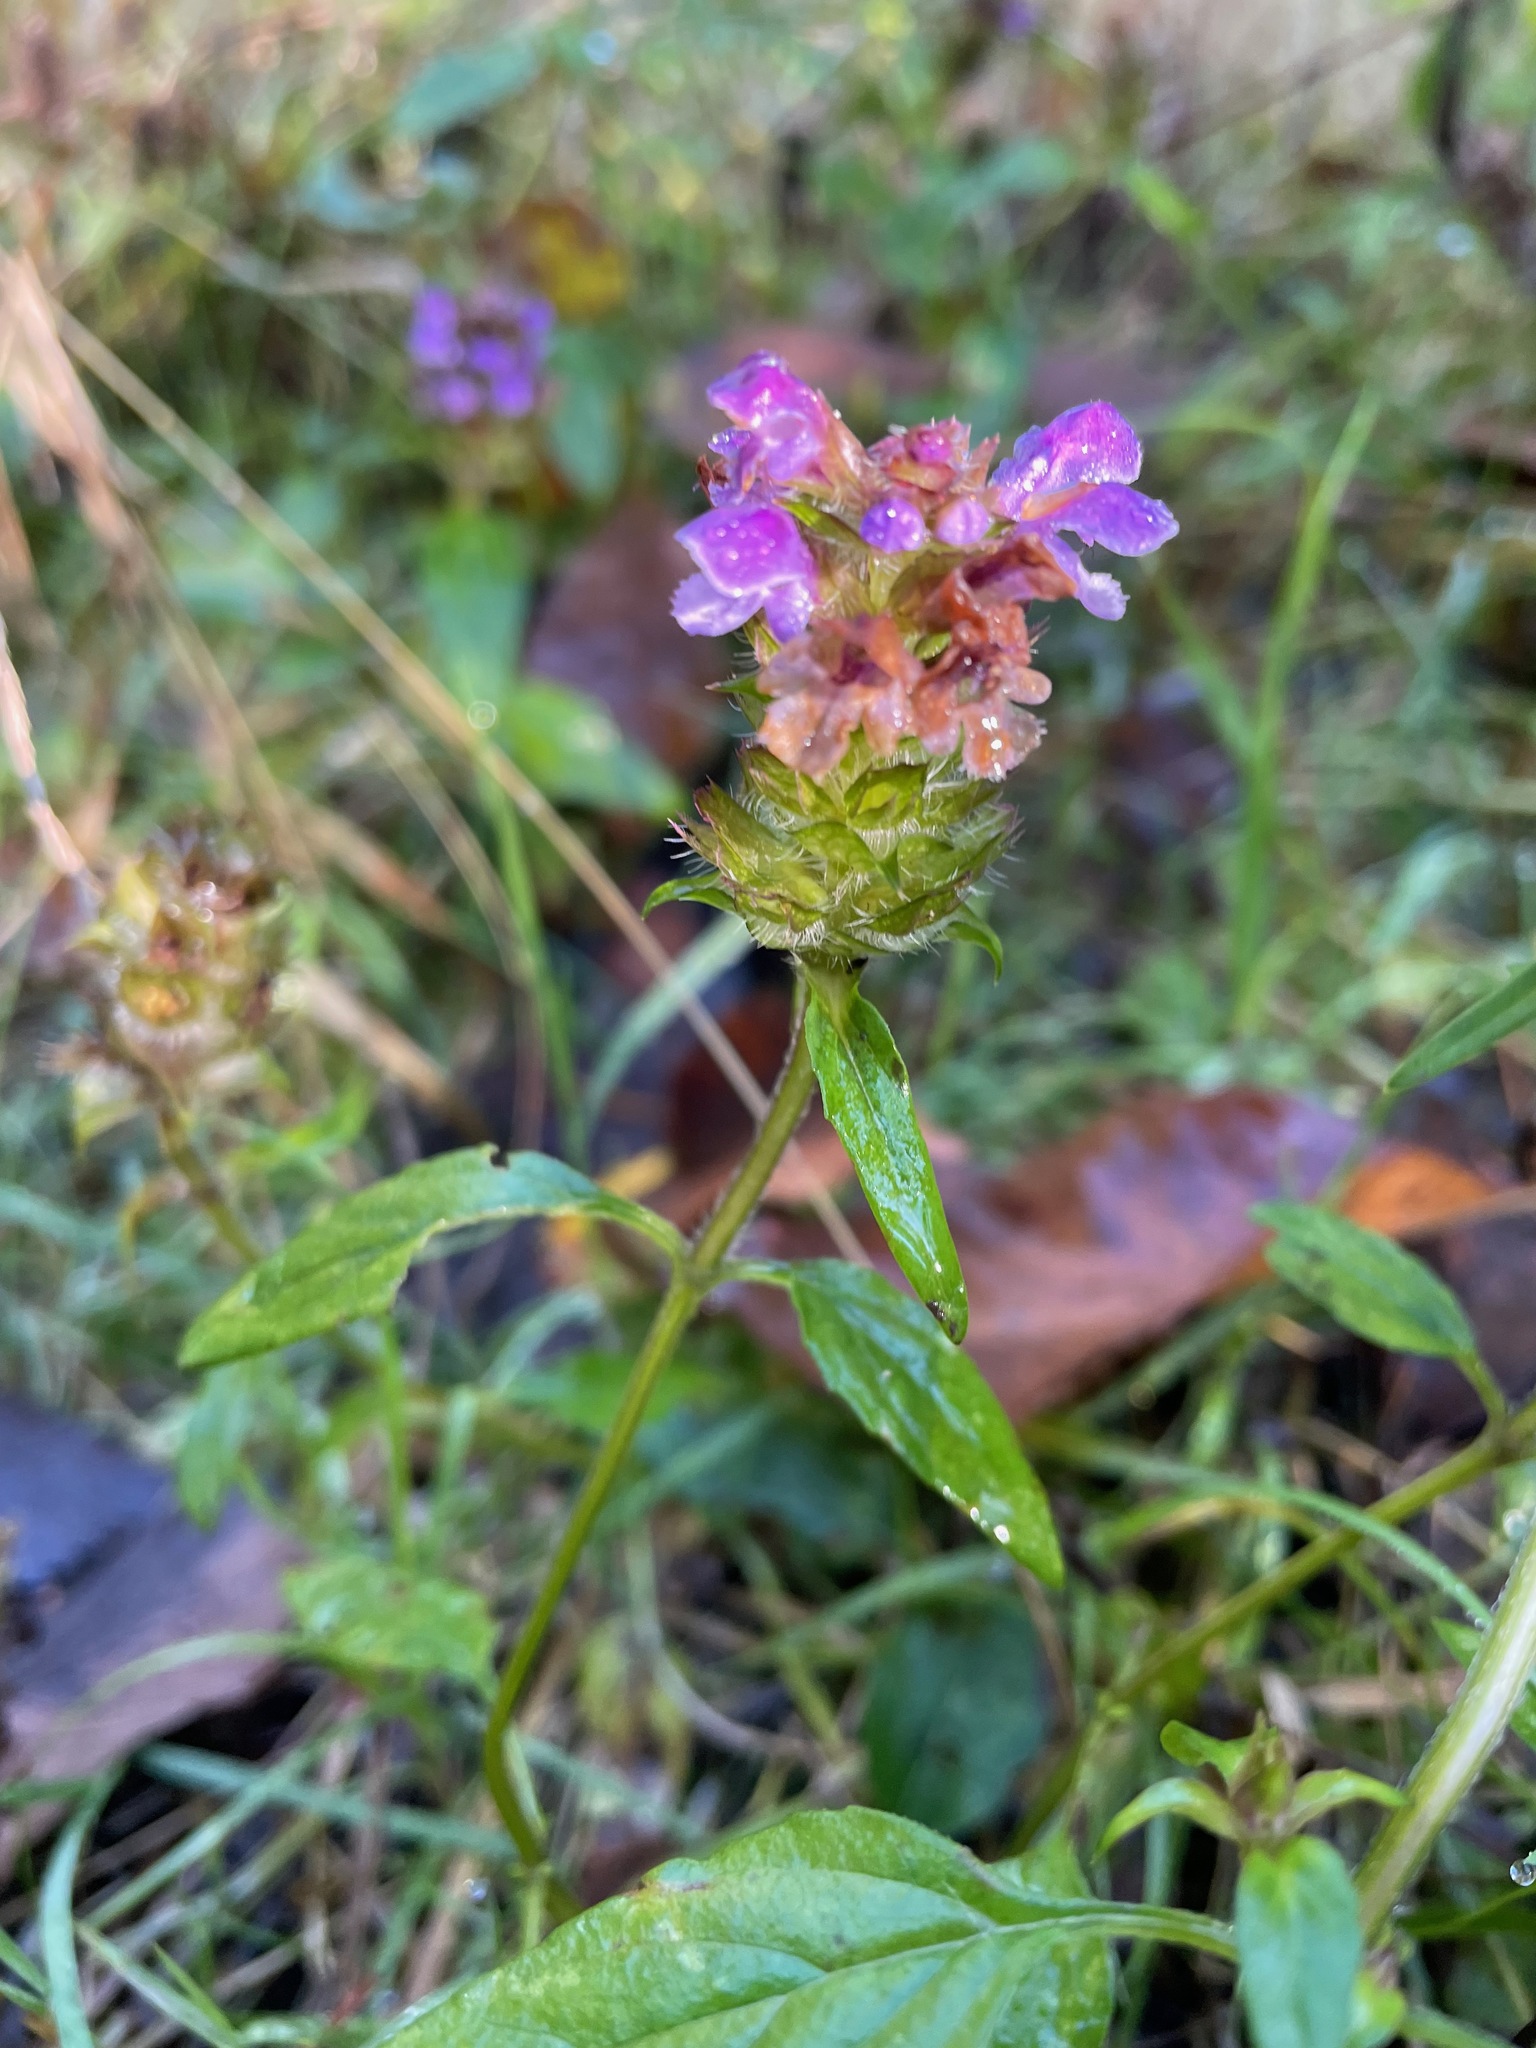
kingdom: Plantae
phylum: Tracheophyta
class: Magnoliopsida
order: Lamiales
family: Lamiaceae
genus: Prunella
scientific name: Prunella vulgaris
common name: Heal-all
